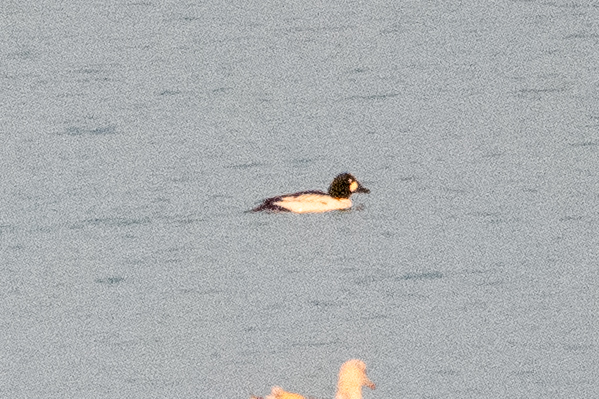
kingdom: Animalia
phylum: Chordata
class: Aves
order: Anseriformes
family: Anatidae
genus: Bucephala
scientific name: Bucephala clangula
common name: Common goldeneye
